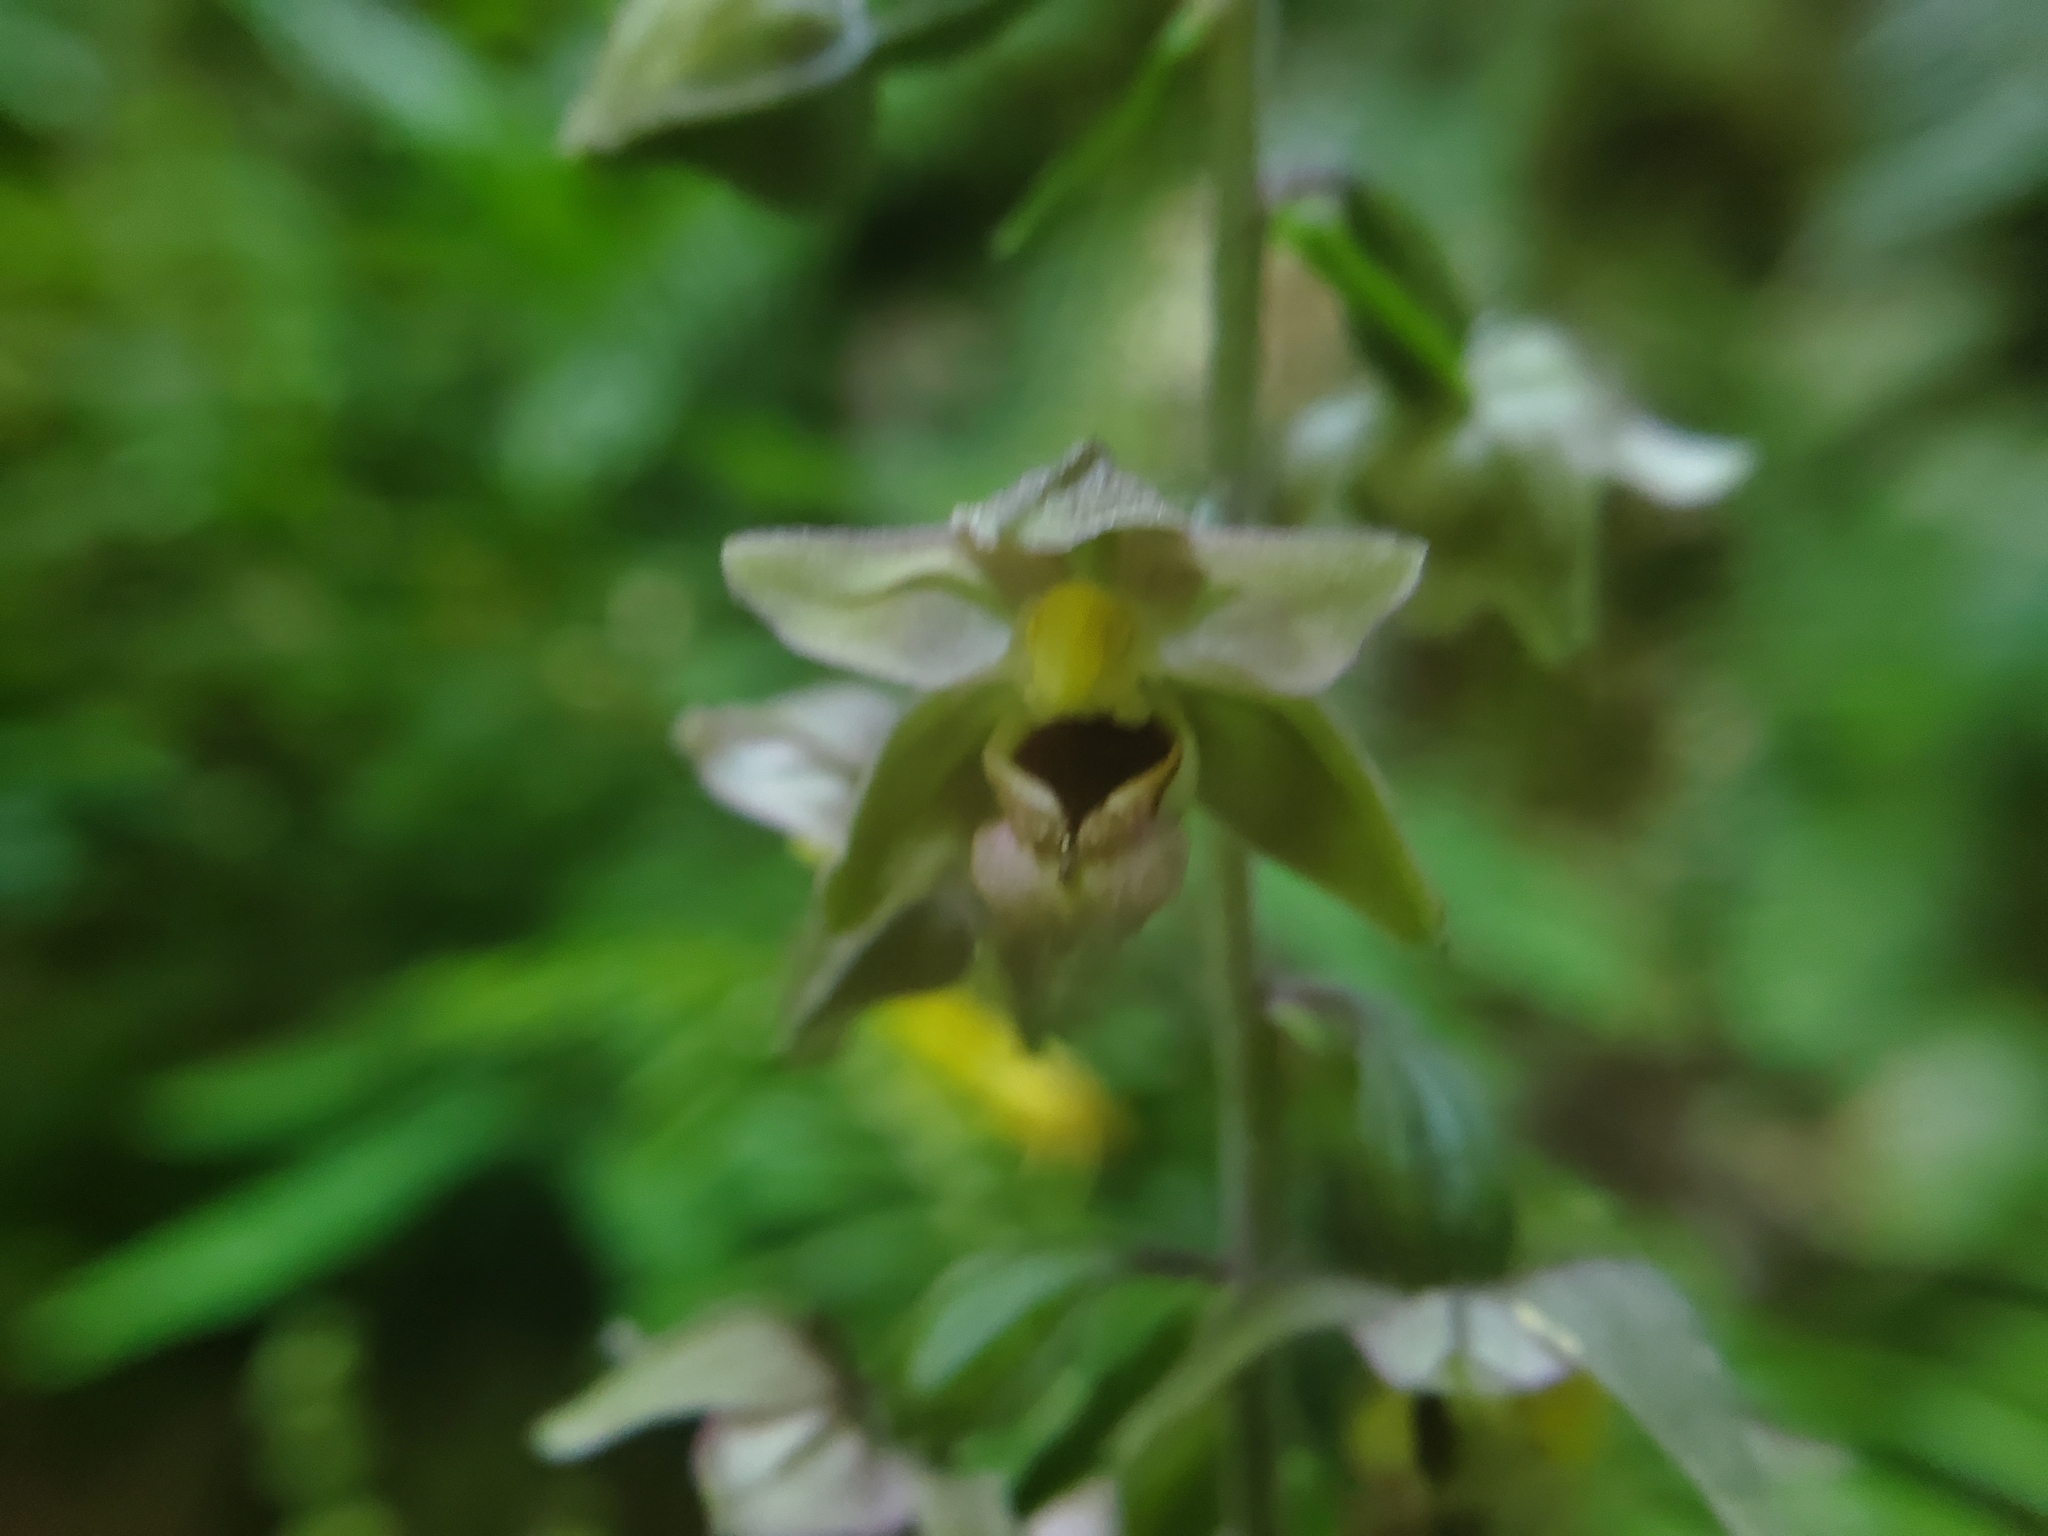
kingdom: Plantae
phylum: Tracheophyta
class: Liliopsida
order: Asparagales
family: Orchidaceae
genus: Epipactis
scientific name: Epipactis helleborine
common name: Broad-leaved helleborine
